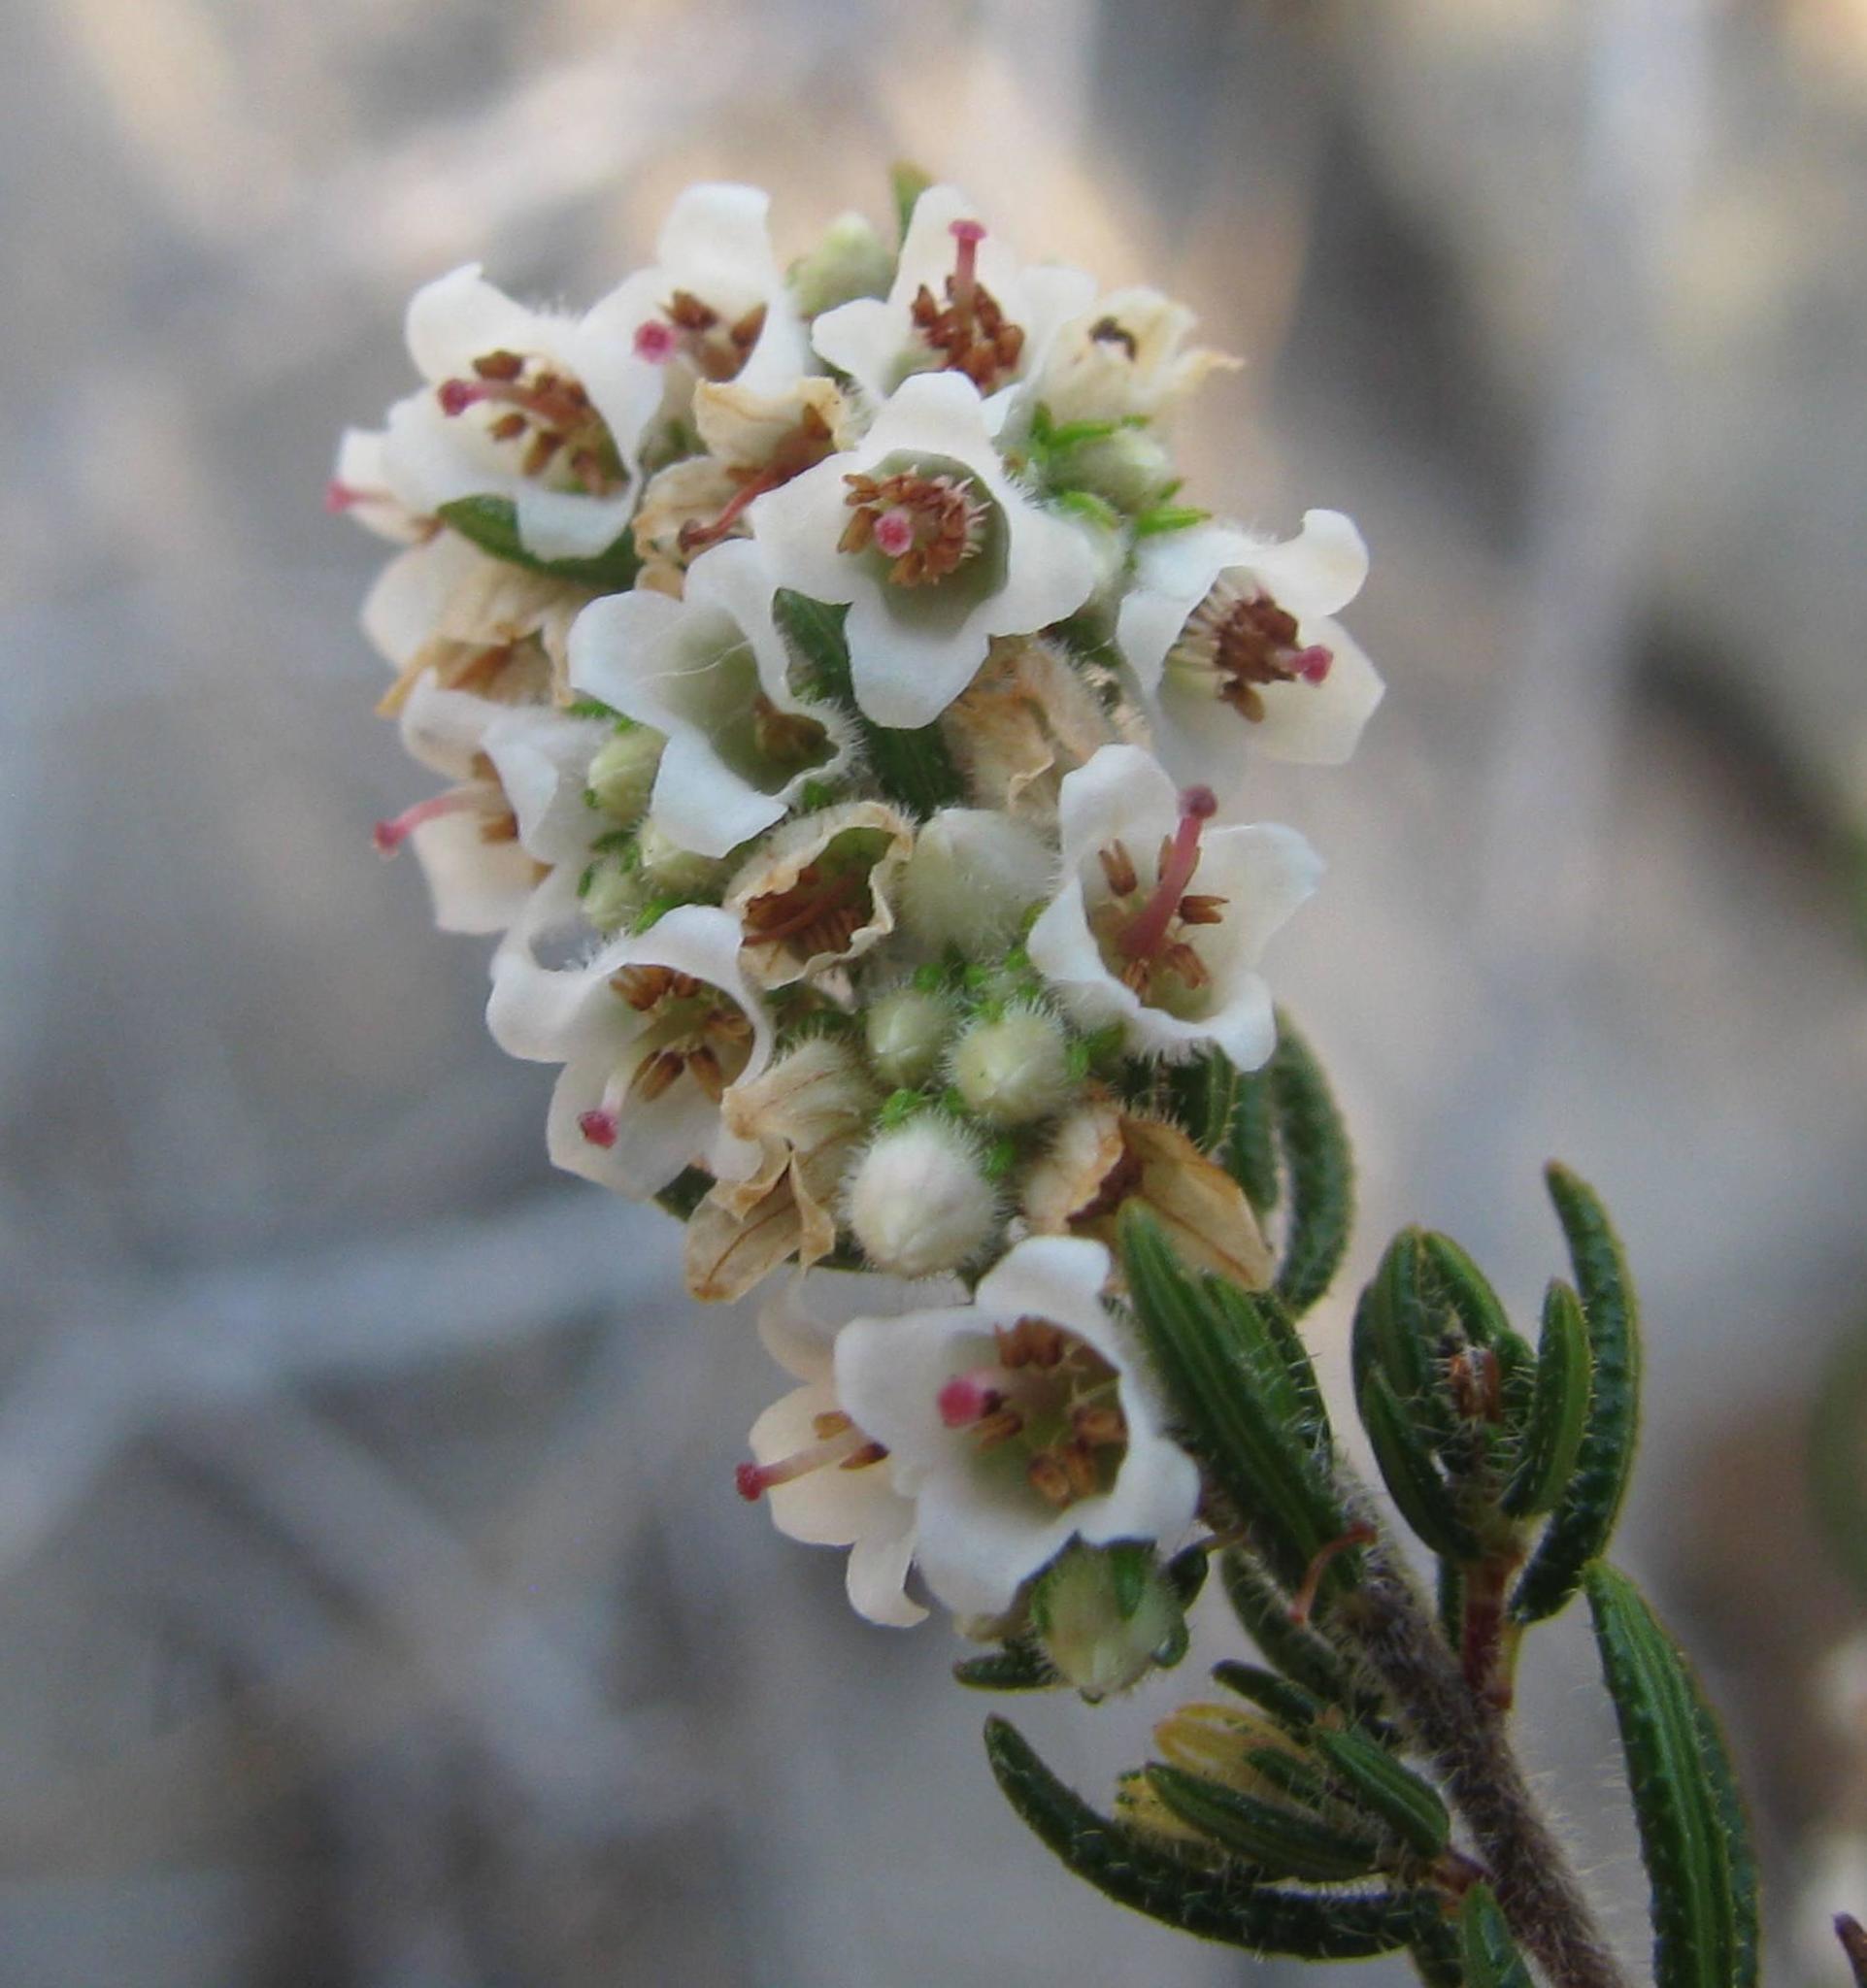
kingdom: Plantae
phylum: Tracheophyta
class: Magnoliopsida
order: Ericales
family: Ericaceae
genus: Erica
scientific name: Erica distorta
